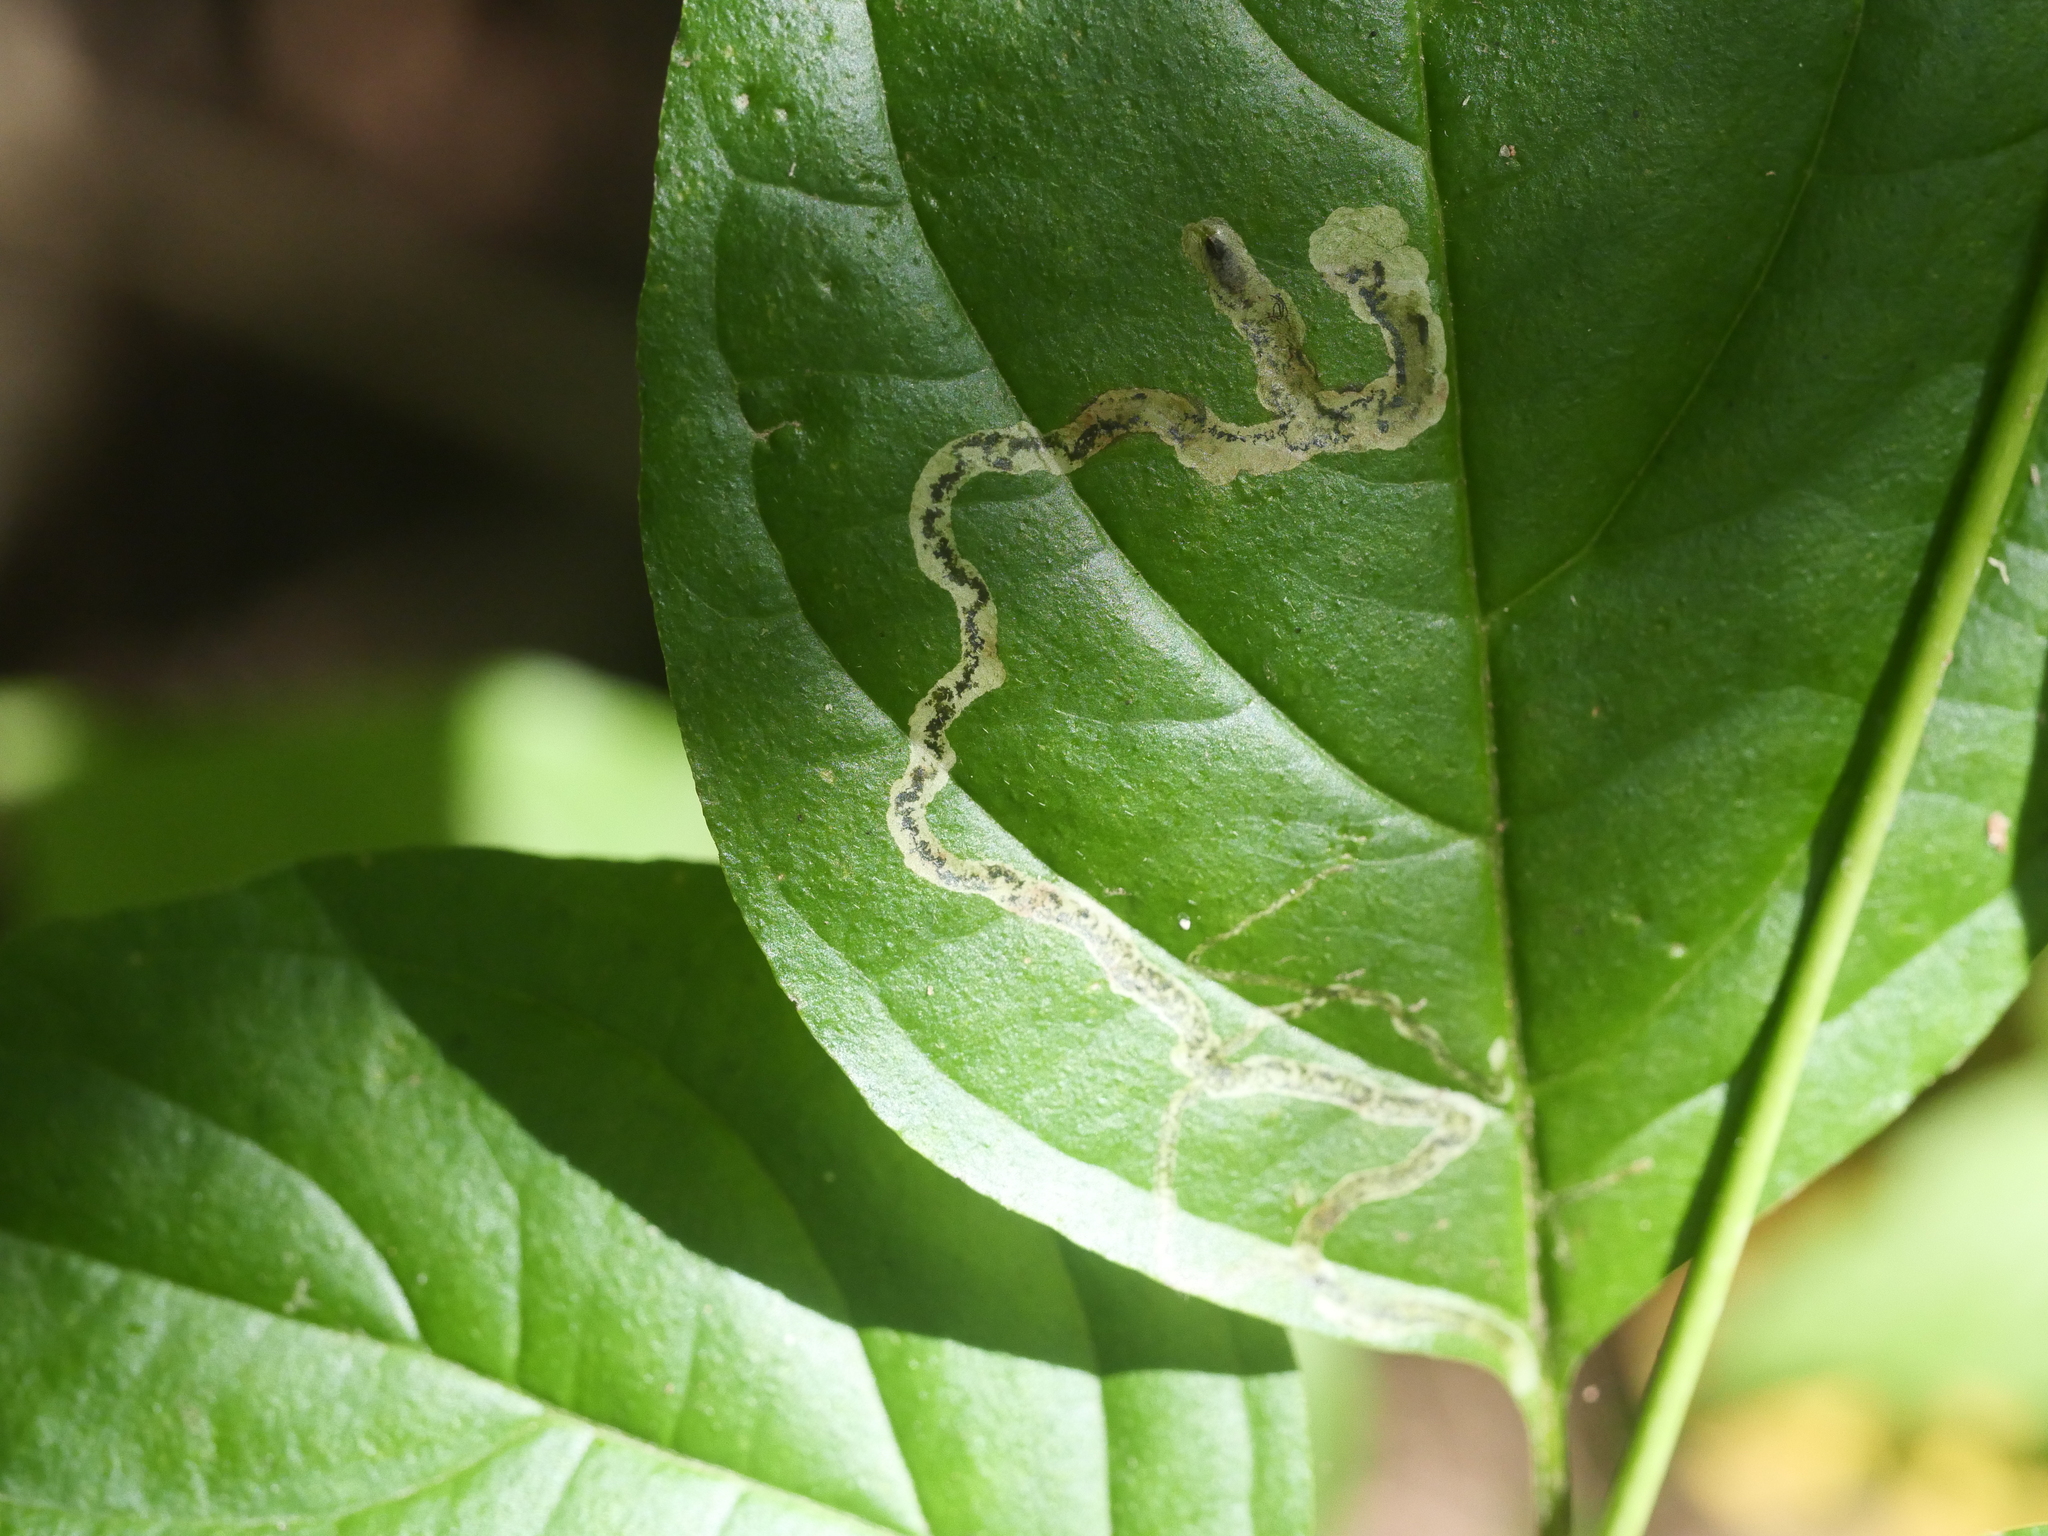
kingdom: Animalia
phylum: Arthropoda
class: Insecta
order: Diptera
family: Agromyzidae
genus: Phytomyza
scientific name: Phytomyza agromyzina
